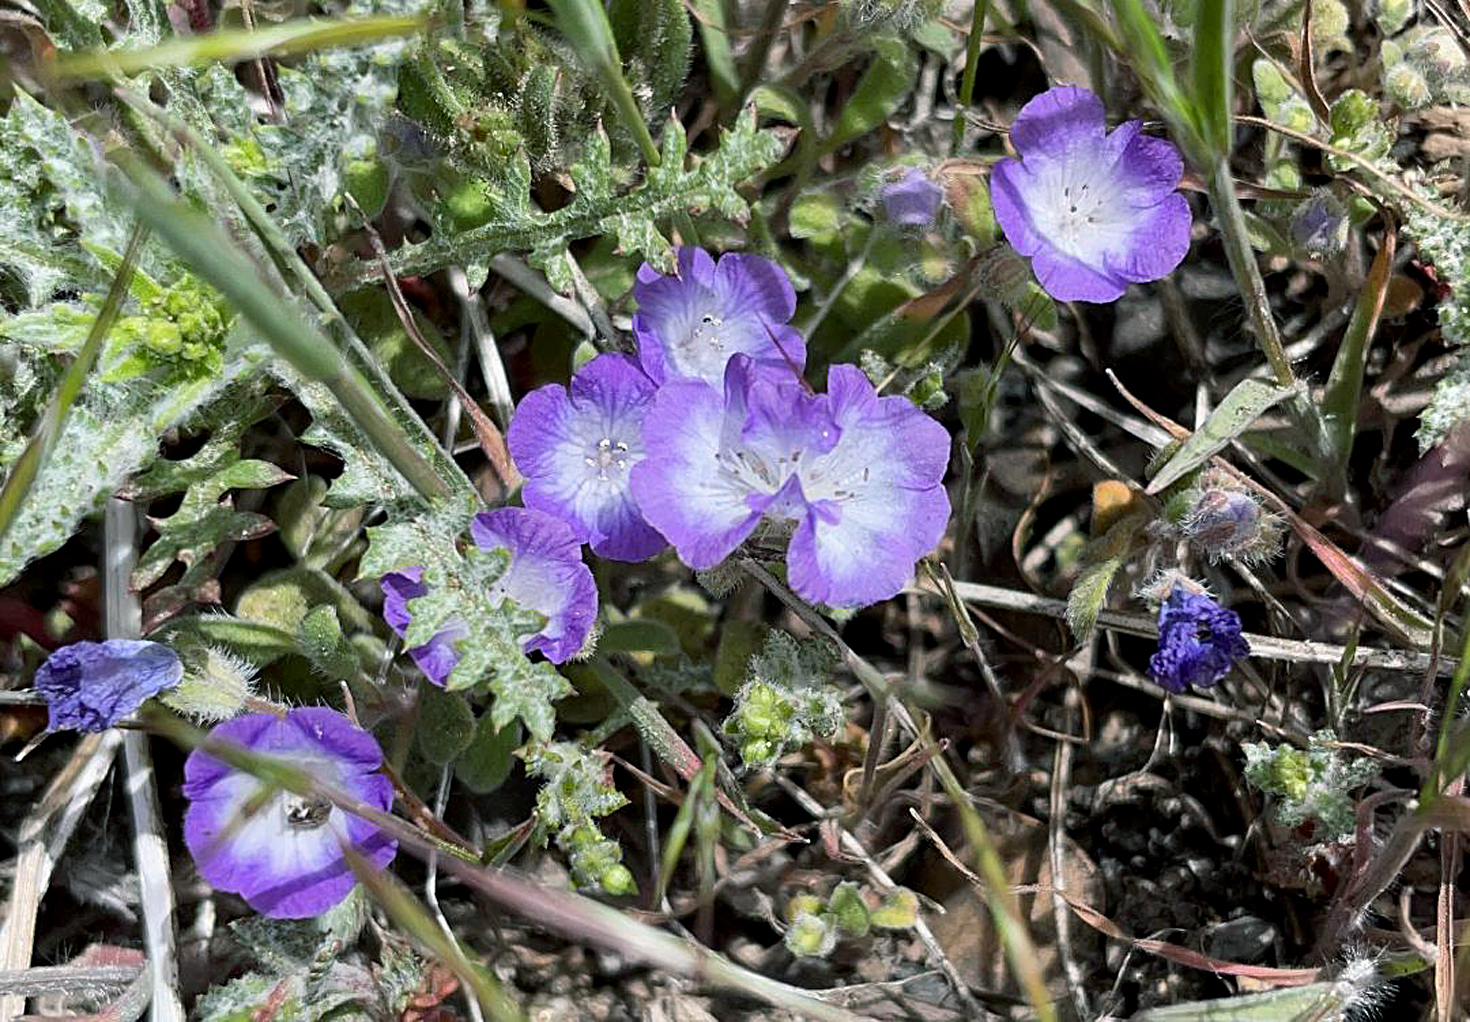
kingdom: Plantae
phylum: Tracheophyta
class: Magnoliopsida
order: Boraginales
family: Hydrophyllaceae
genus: Phacelia
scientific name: Phacelia curvipes
